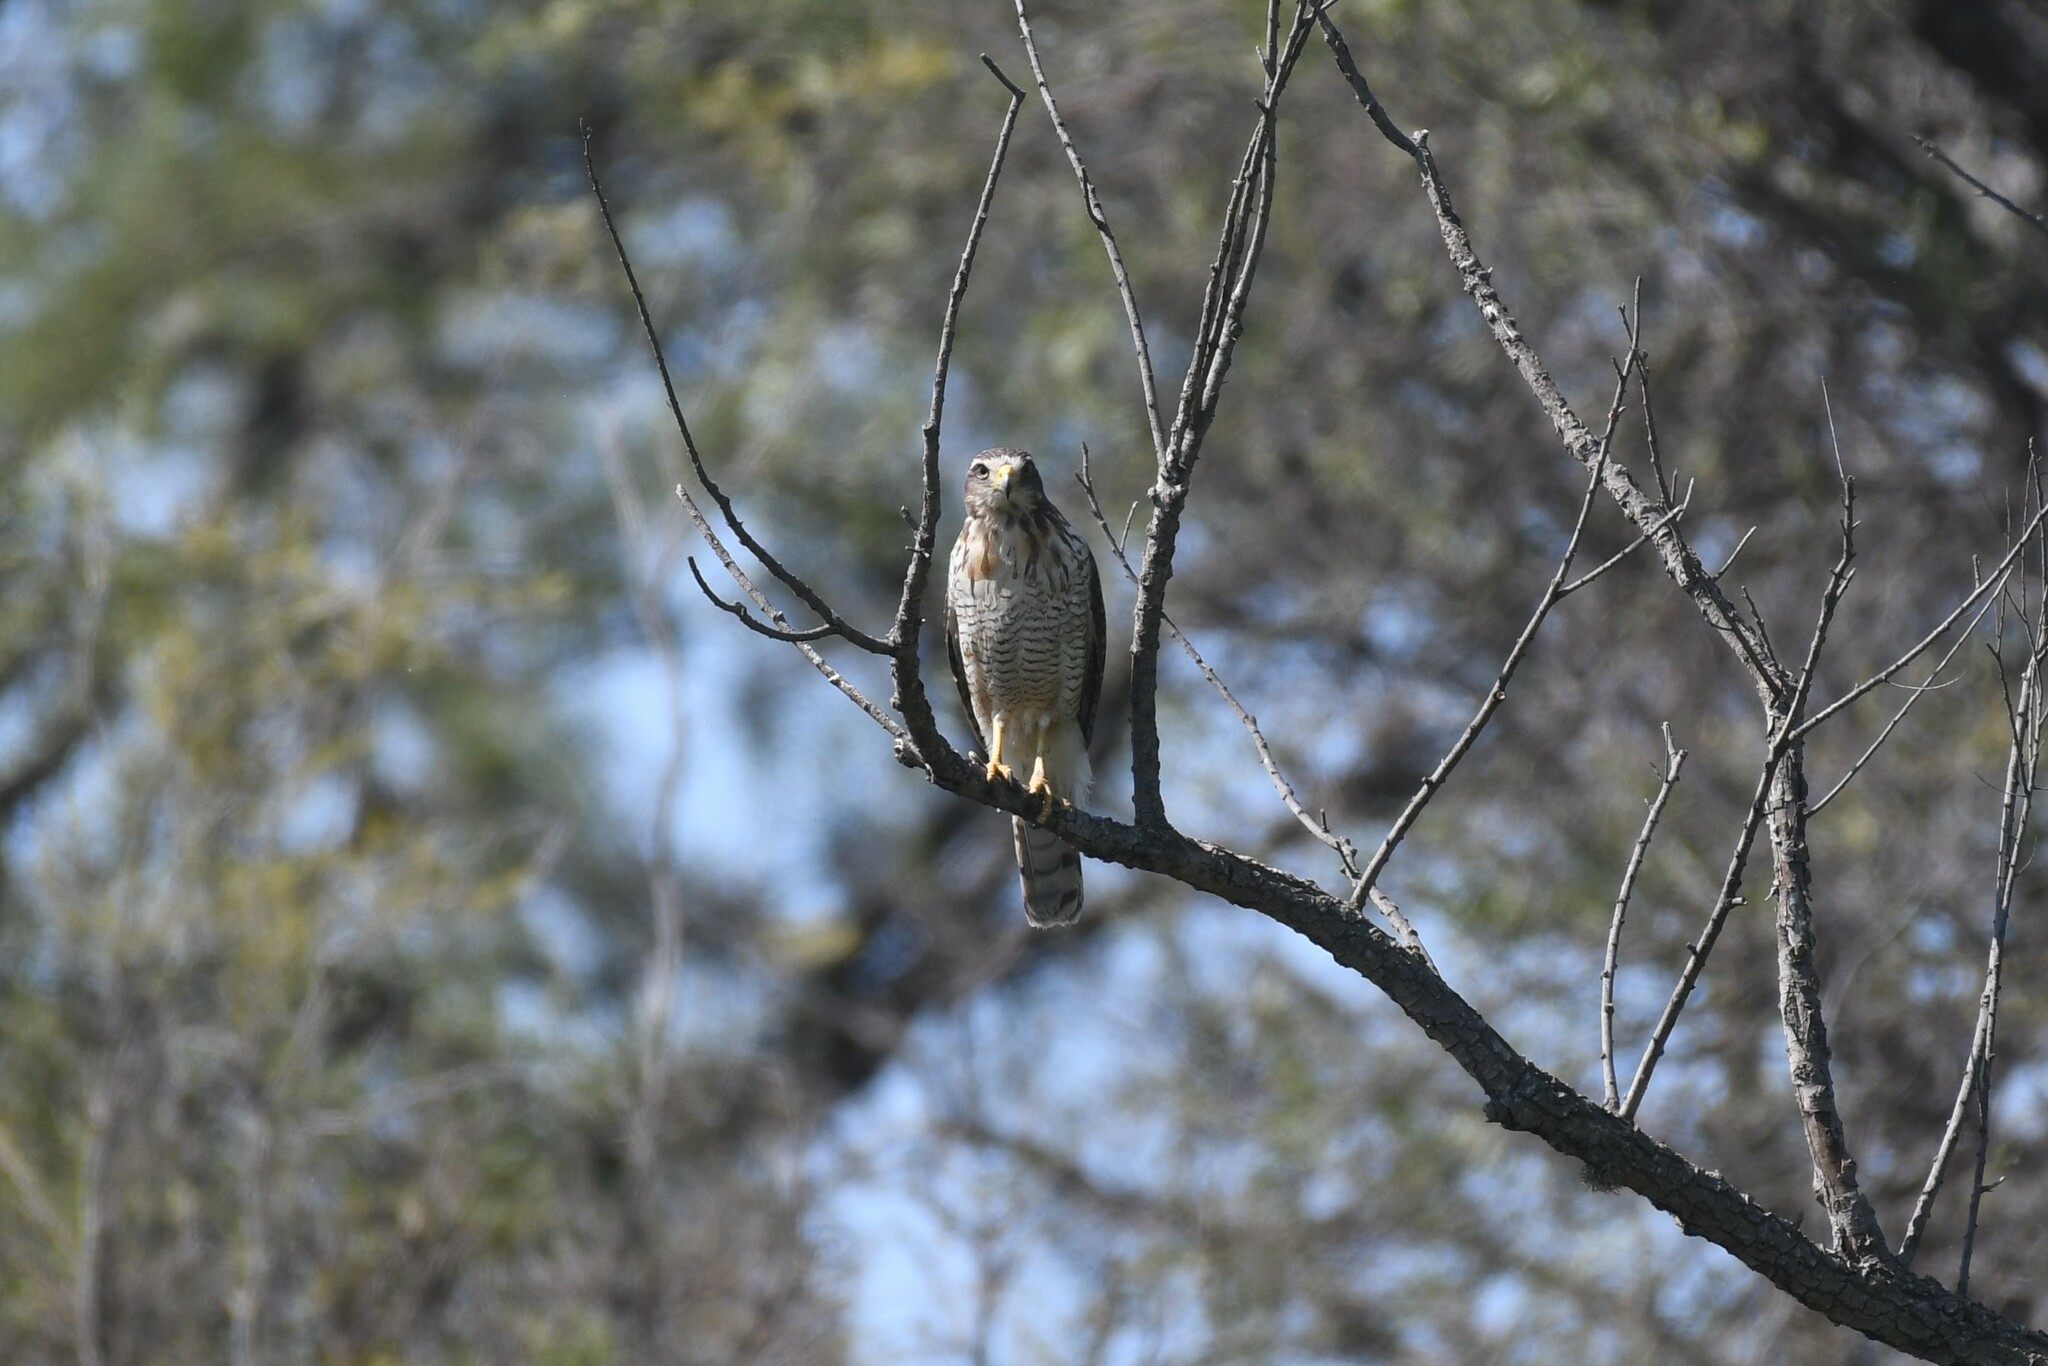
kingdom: Animalia
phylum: Chordata
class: Aves
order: Accipitriformes
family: Accipitridae
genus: Rupornis
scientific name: Rupornis magnirostris
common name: Roadside hawk
